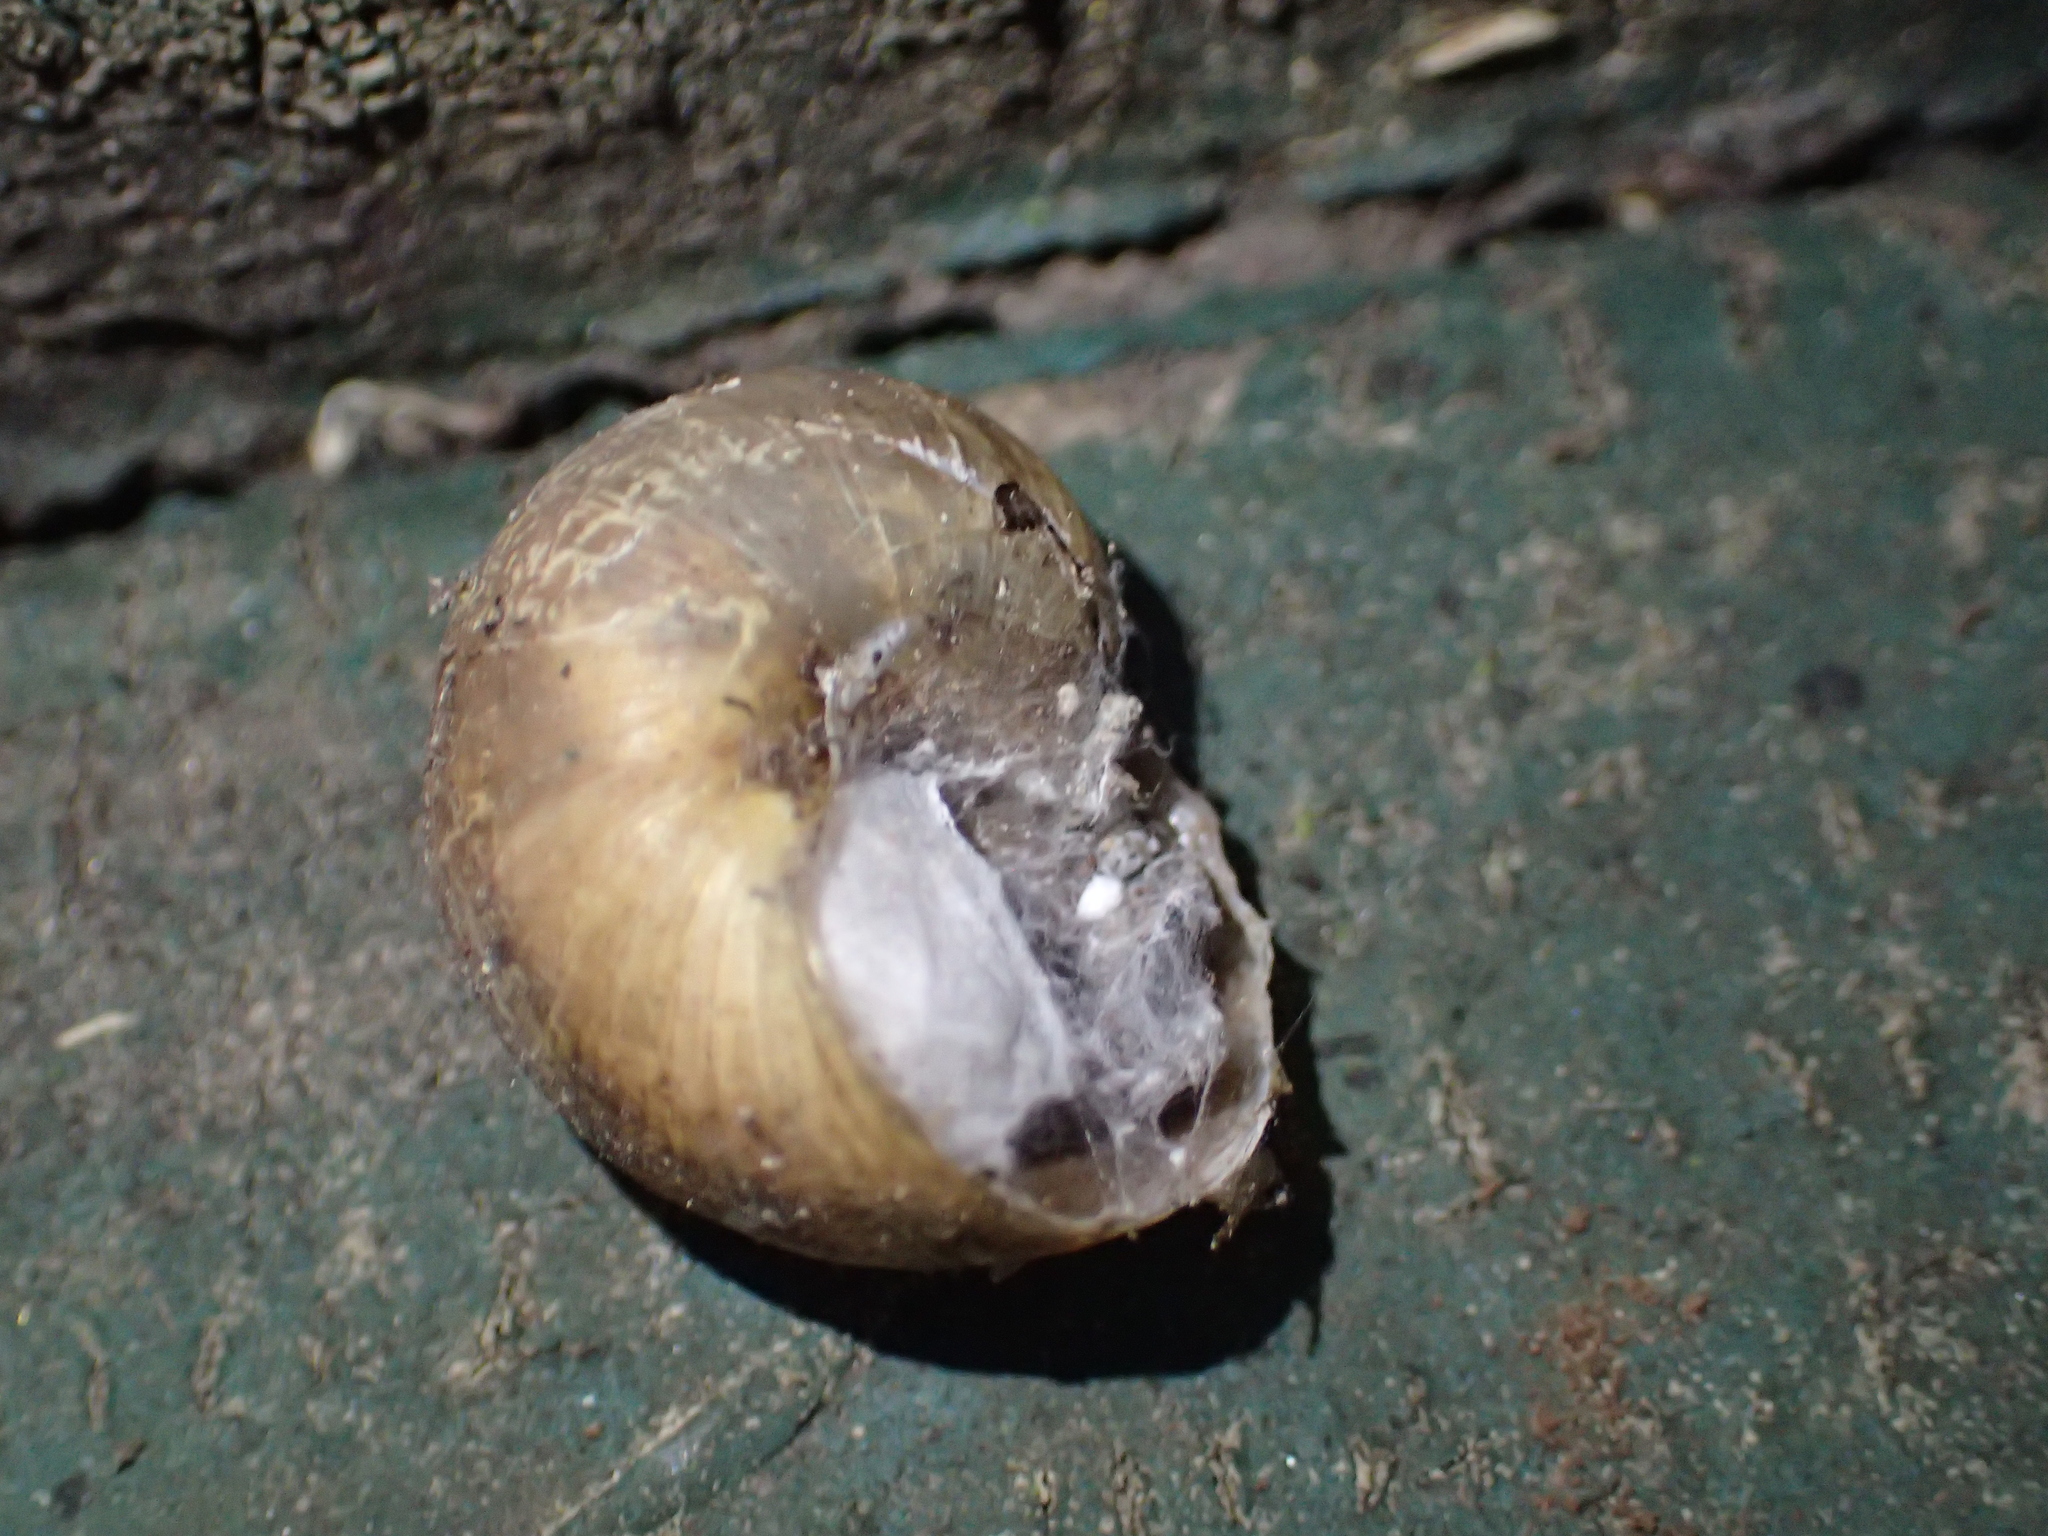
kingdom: Animalia
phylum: Mollusca
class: Gastropoda
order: Stylommatophora
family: Helicidae
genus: Cornu
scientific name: Cornu aspersum
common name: Brown garden snail
